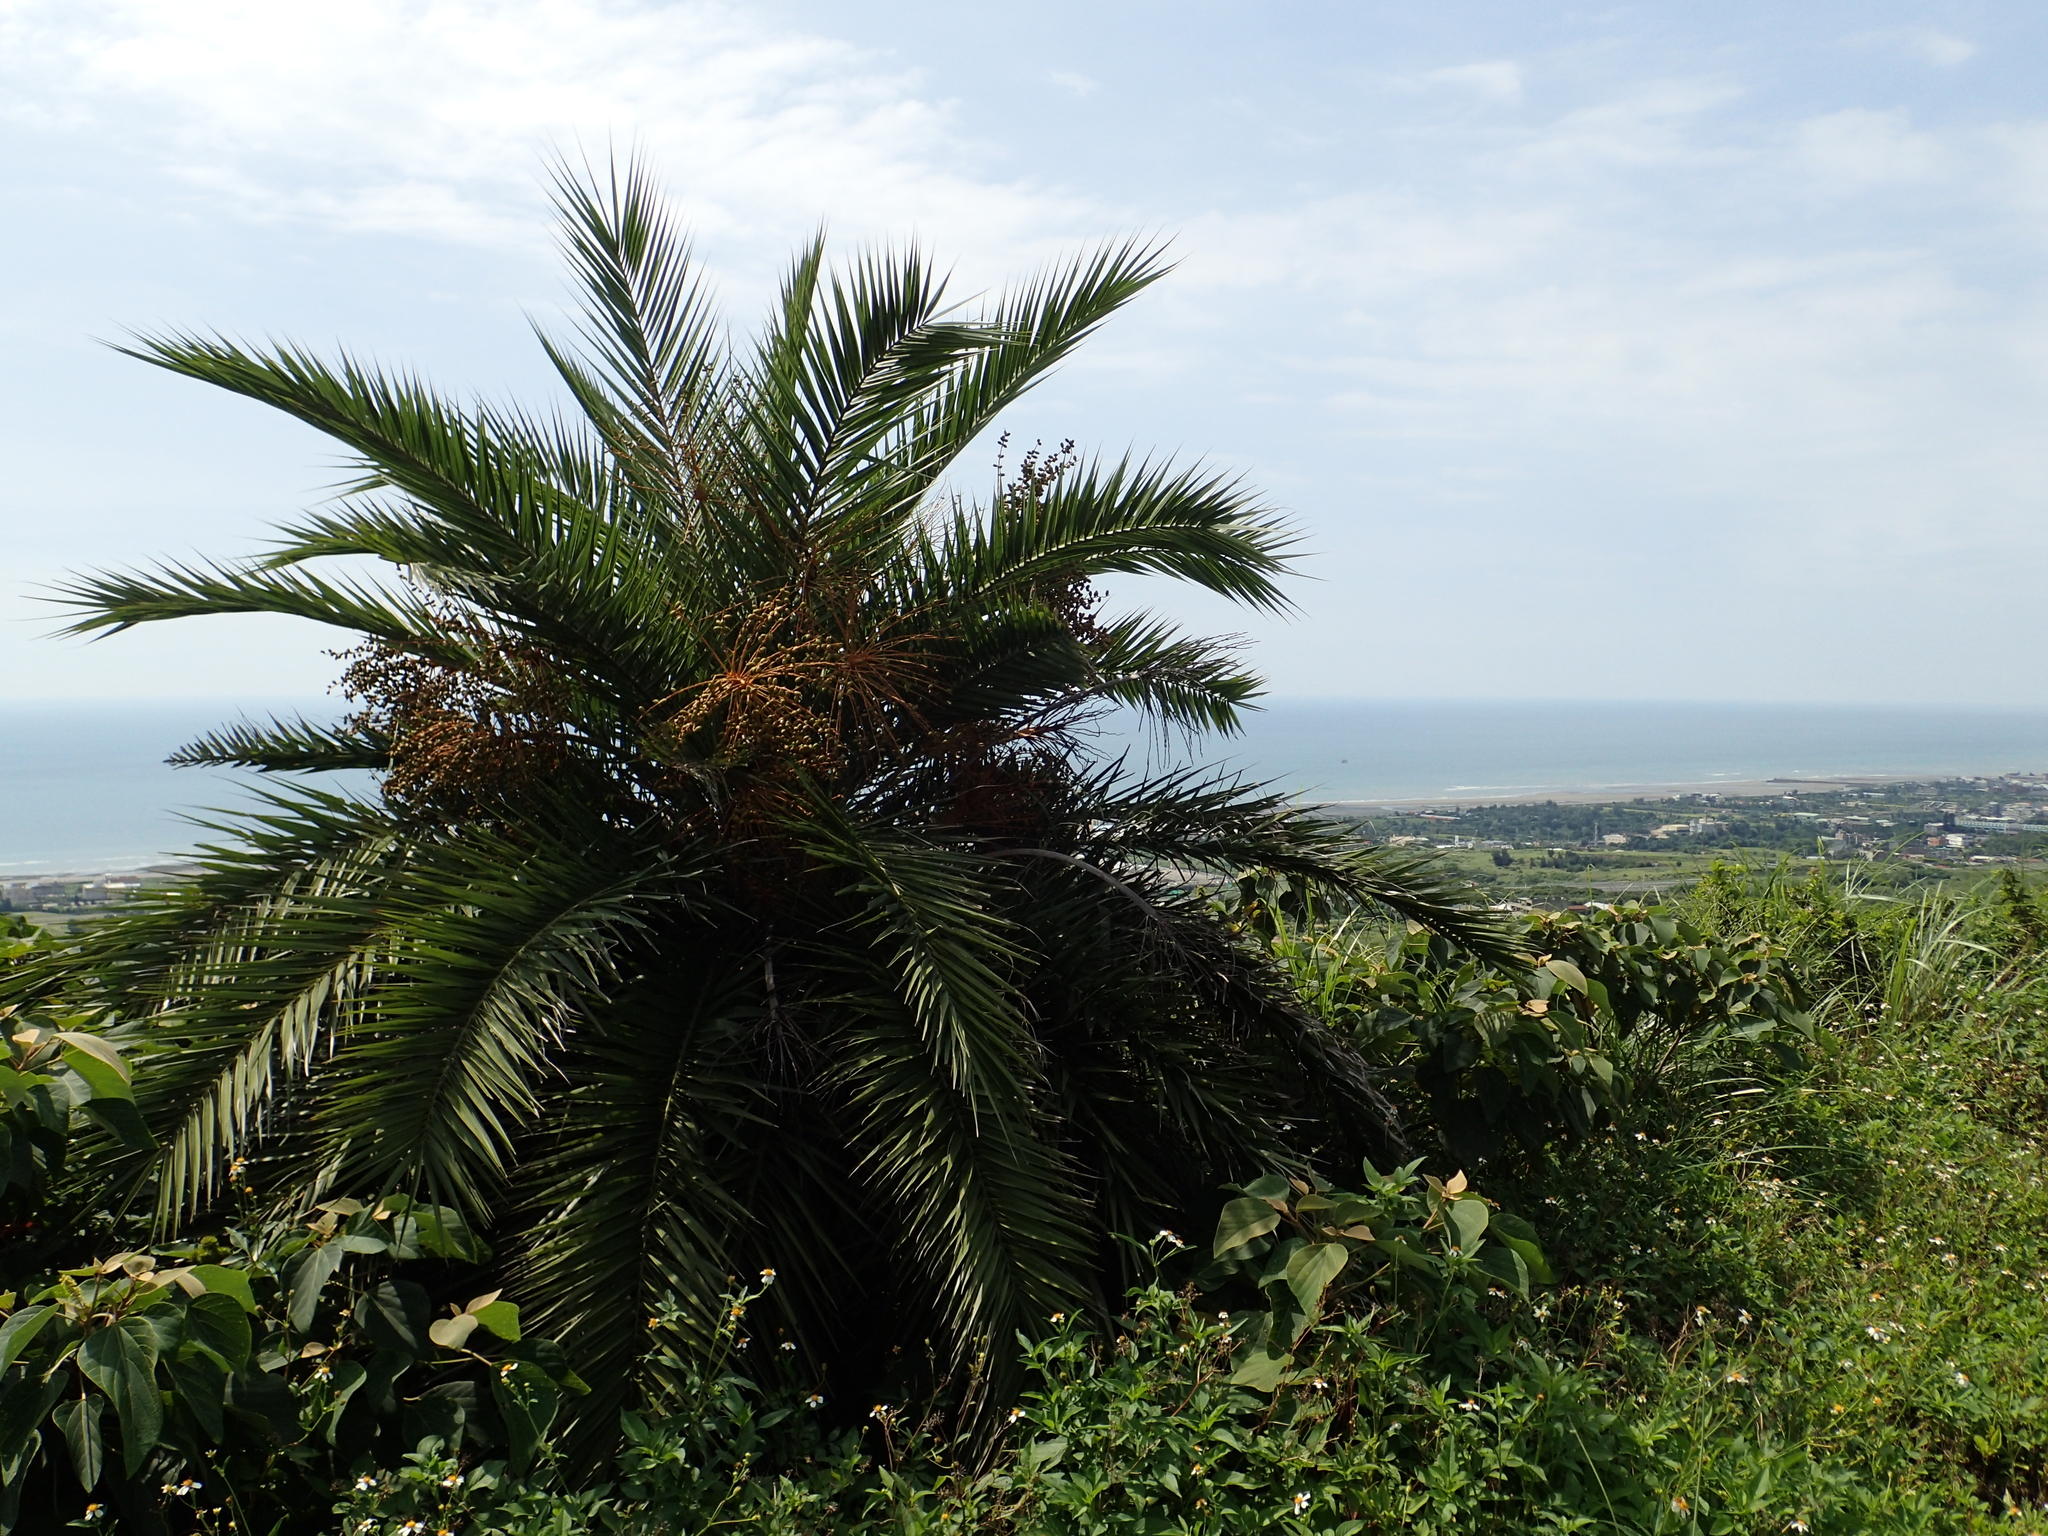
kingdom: Plantae
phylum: Tracheophyta
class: Liliopsida
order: Arecales
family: Arecaceae
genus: Phoenix
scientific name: Phoenix loureiroi
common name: Loureiro's palm
